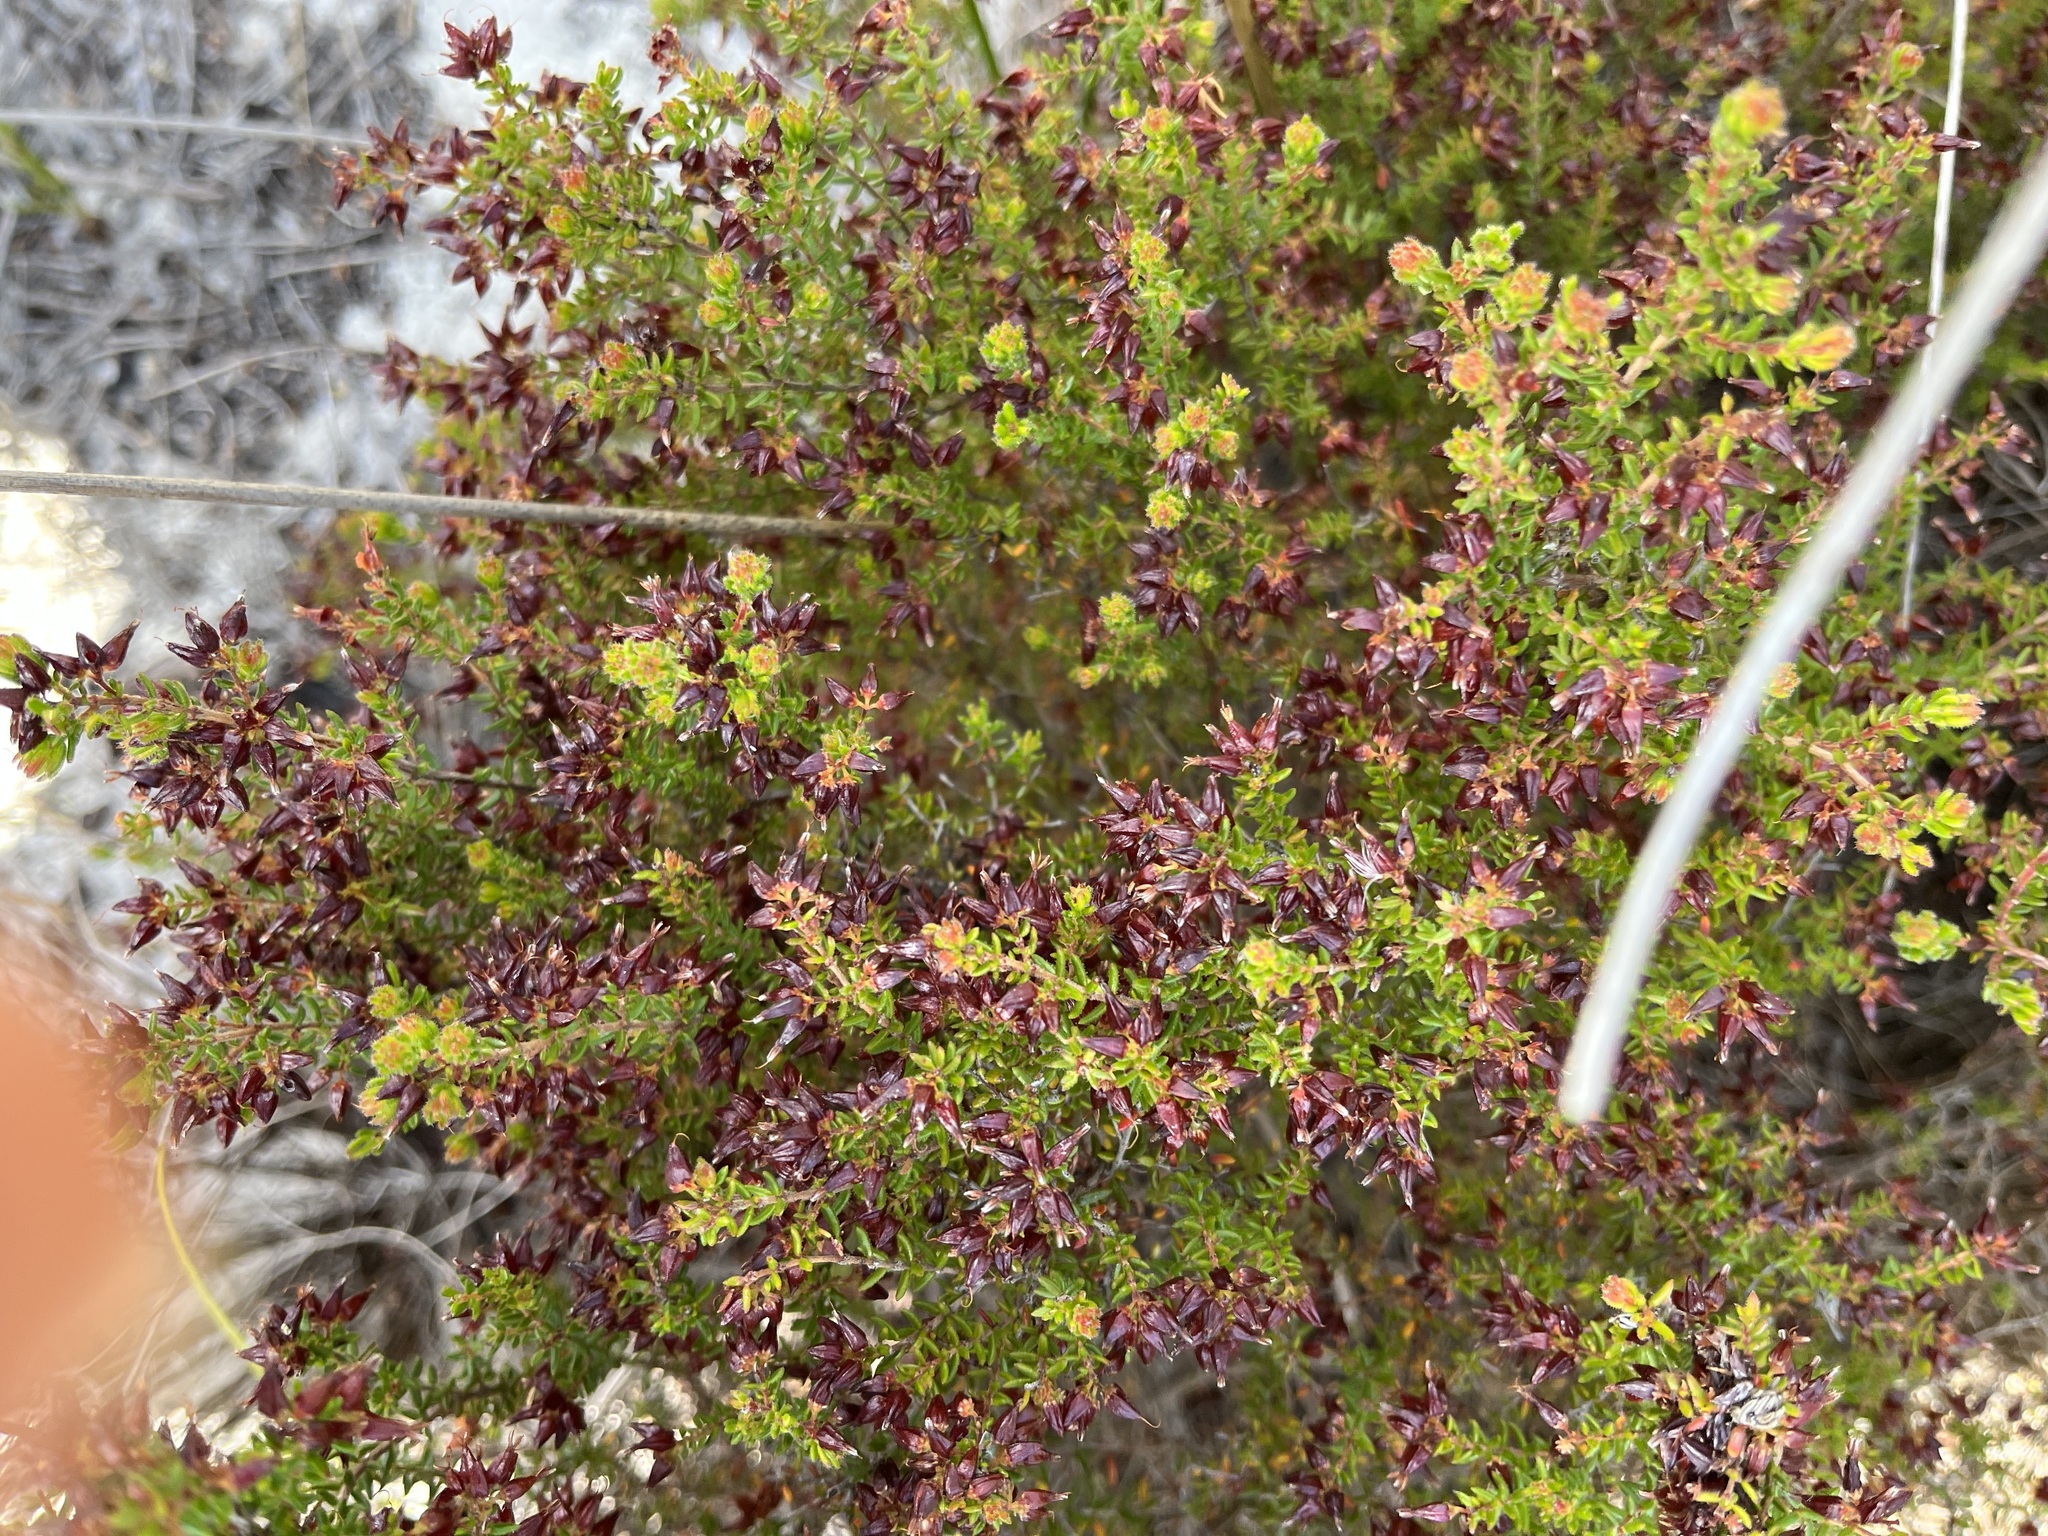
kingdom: Plantae
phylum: Tracheophyta
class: Magnoliopsida
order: Ericales
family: Ericaceae
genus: Erica
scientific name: Erica interrupta
